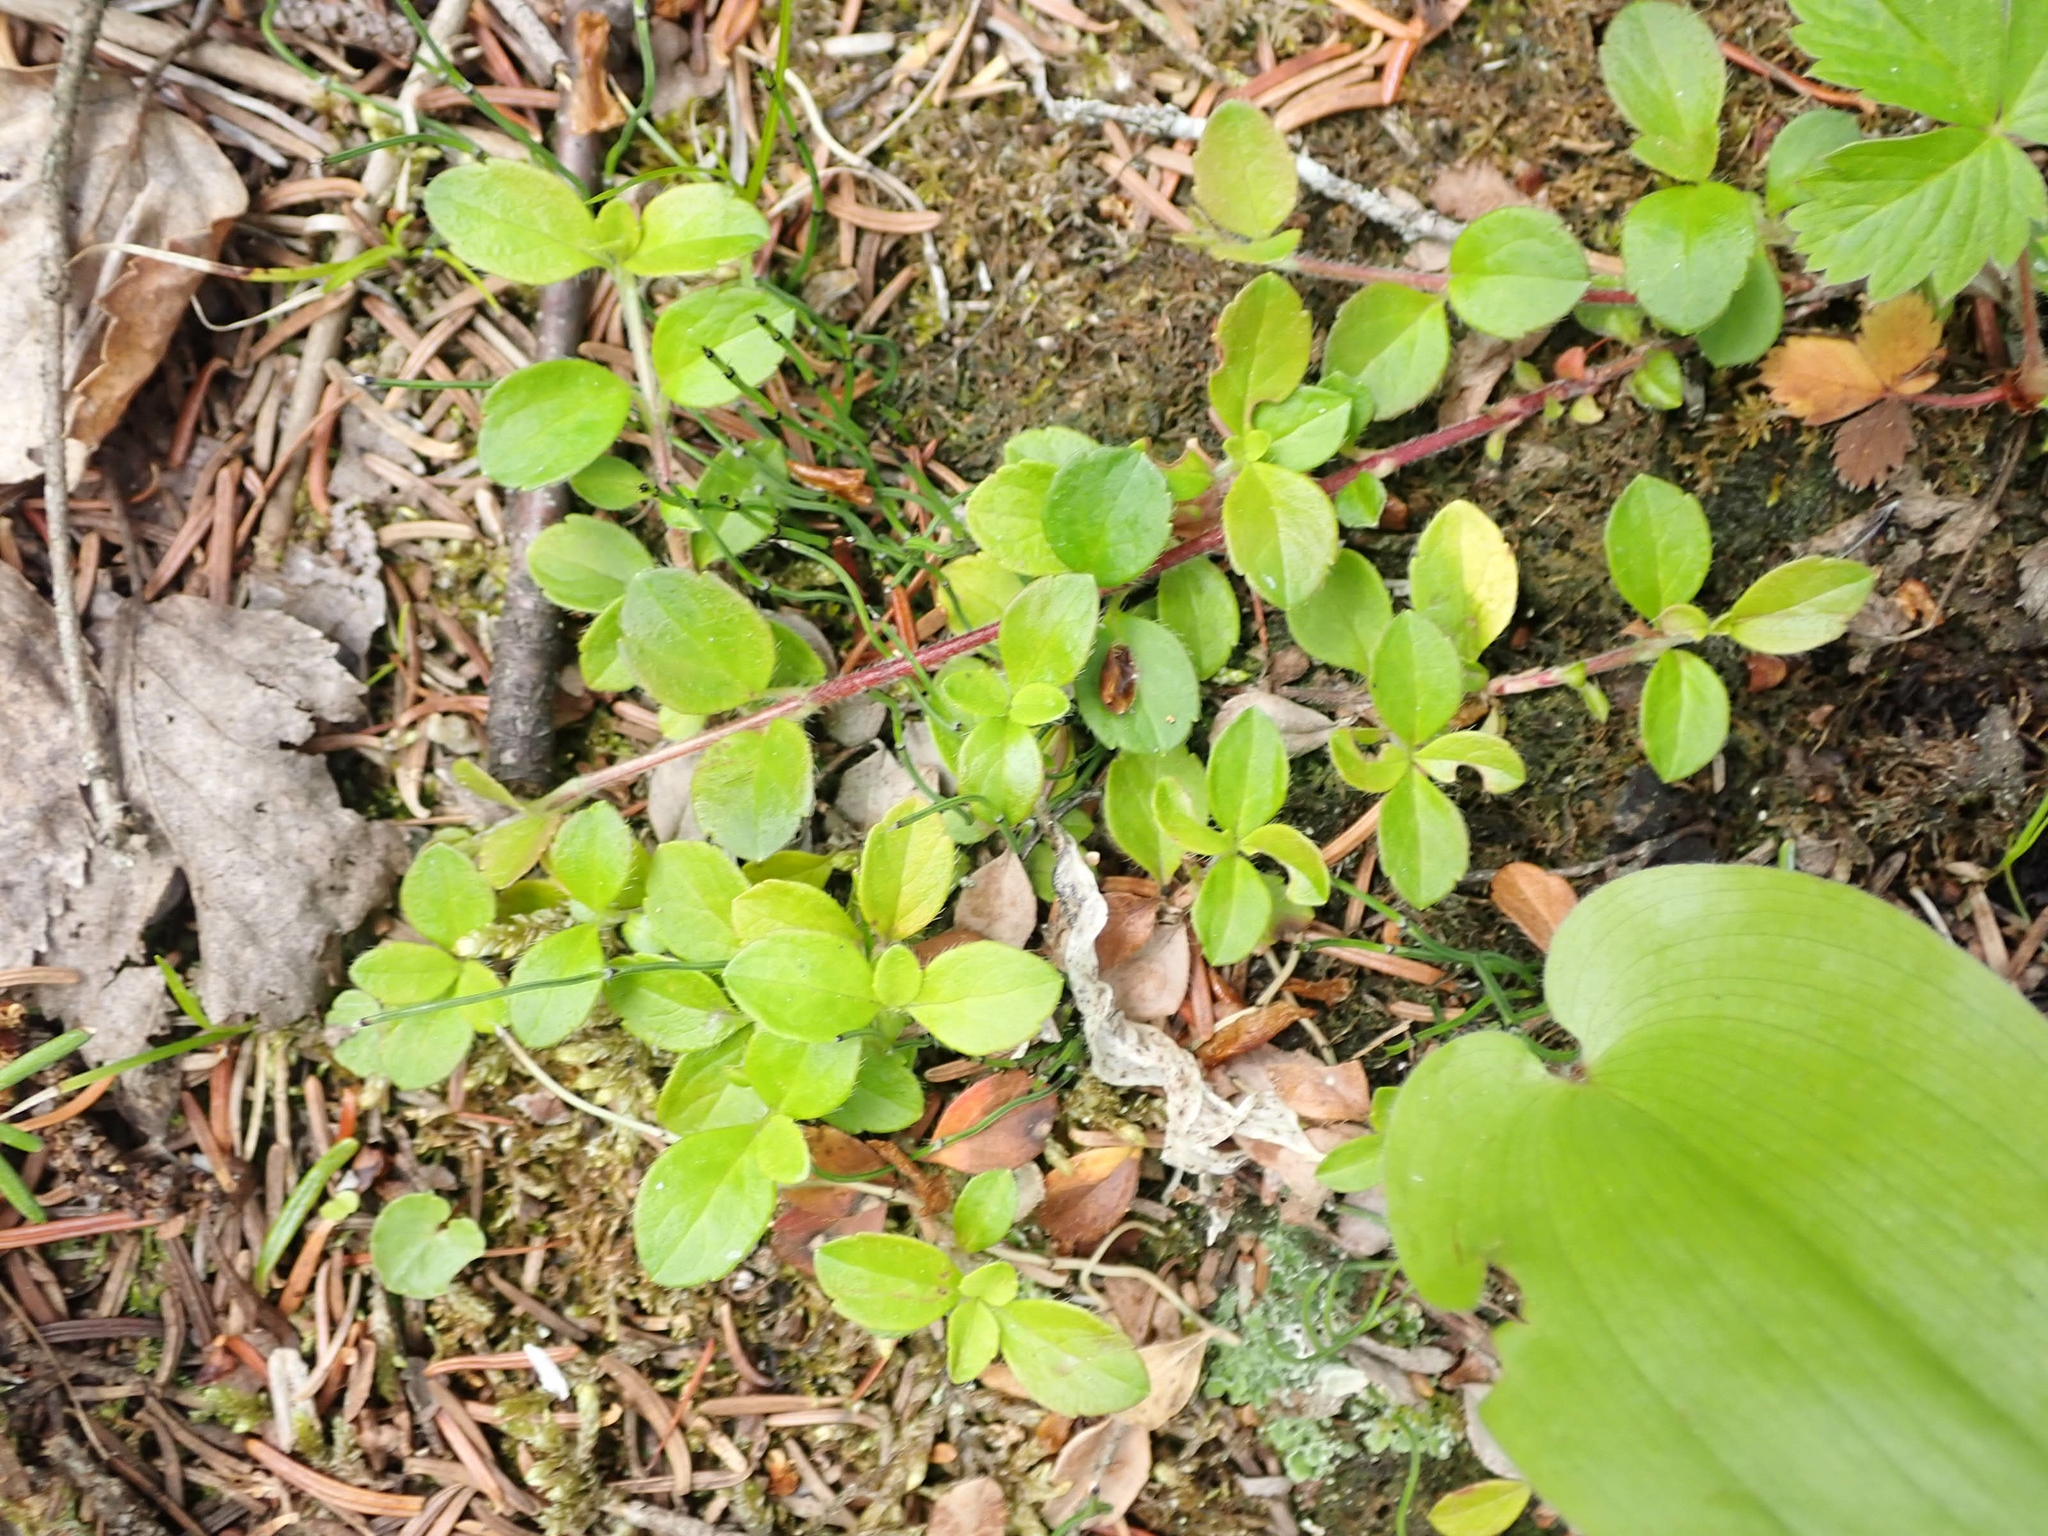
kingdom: Plantae
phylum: Tracheophyta
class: Magnoliopsida
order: Dipsacales
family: Caprifoliaceae
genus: Linnaea
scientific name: Linnaea borealis
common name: Twinflower
